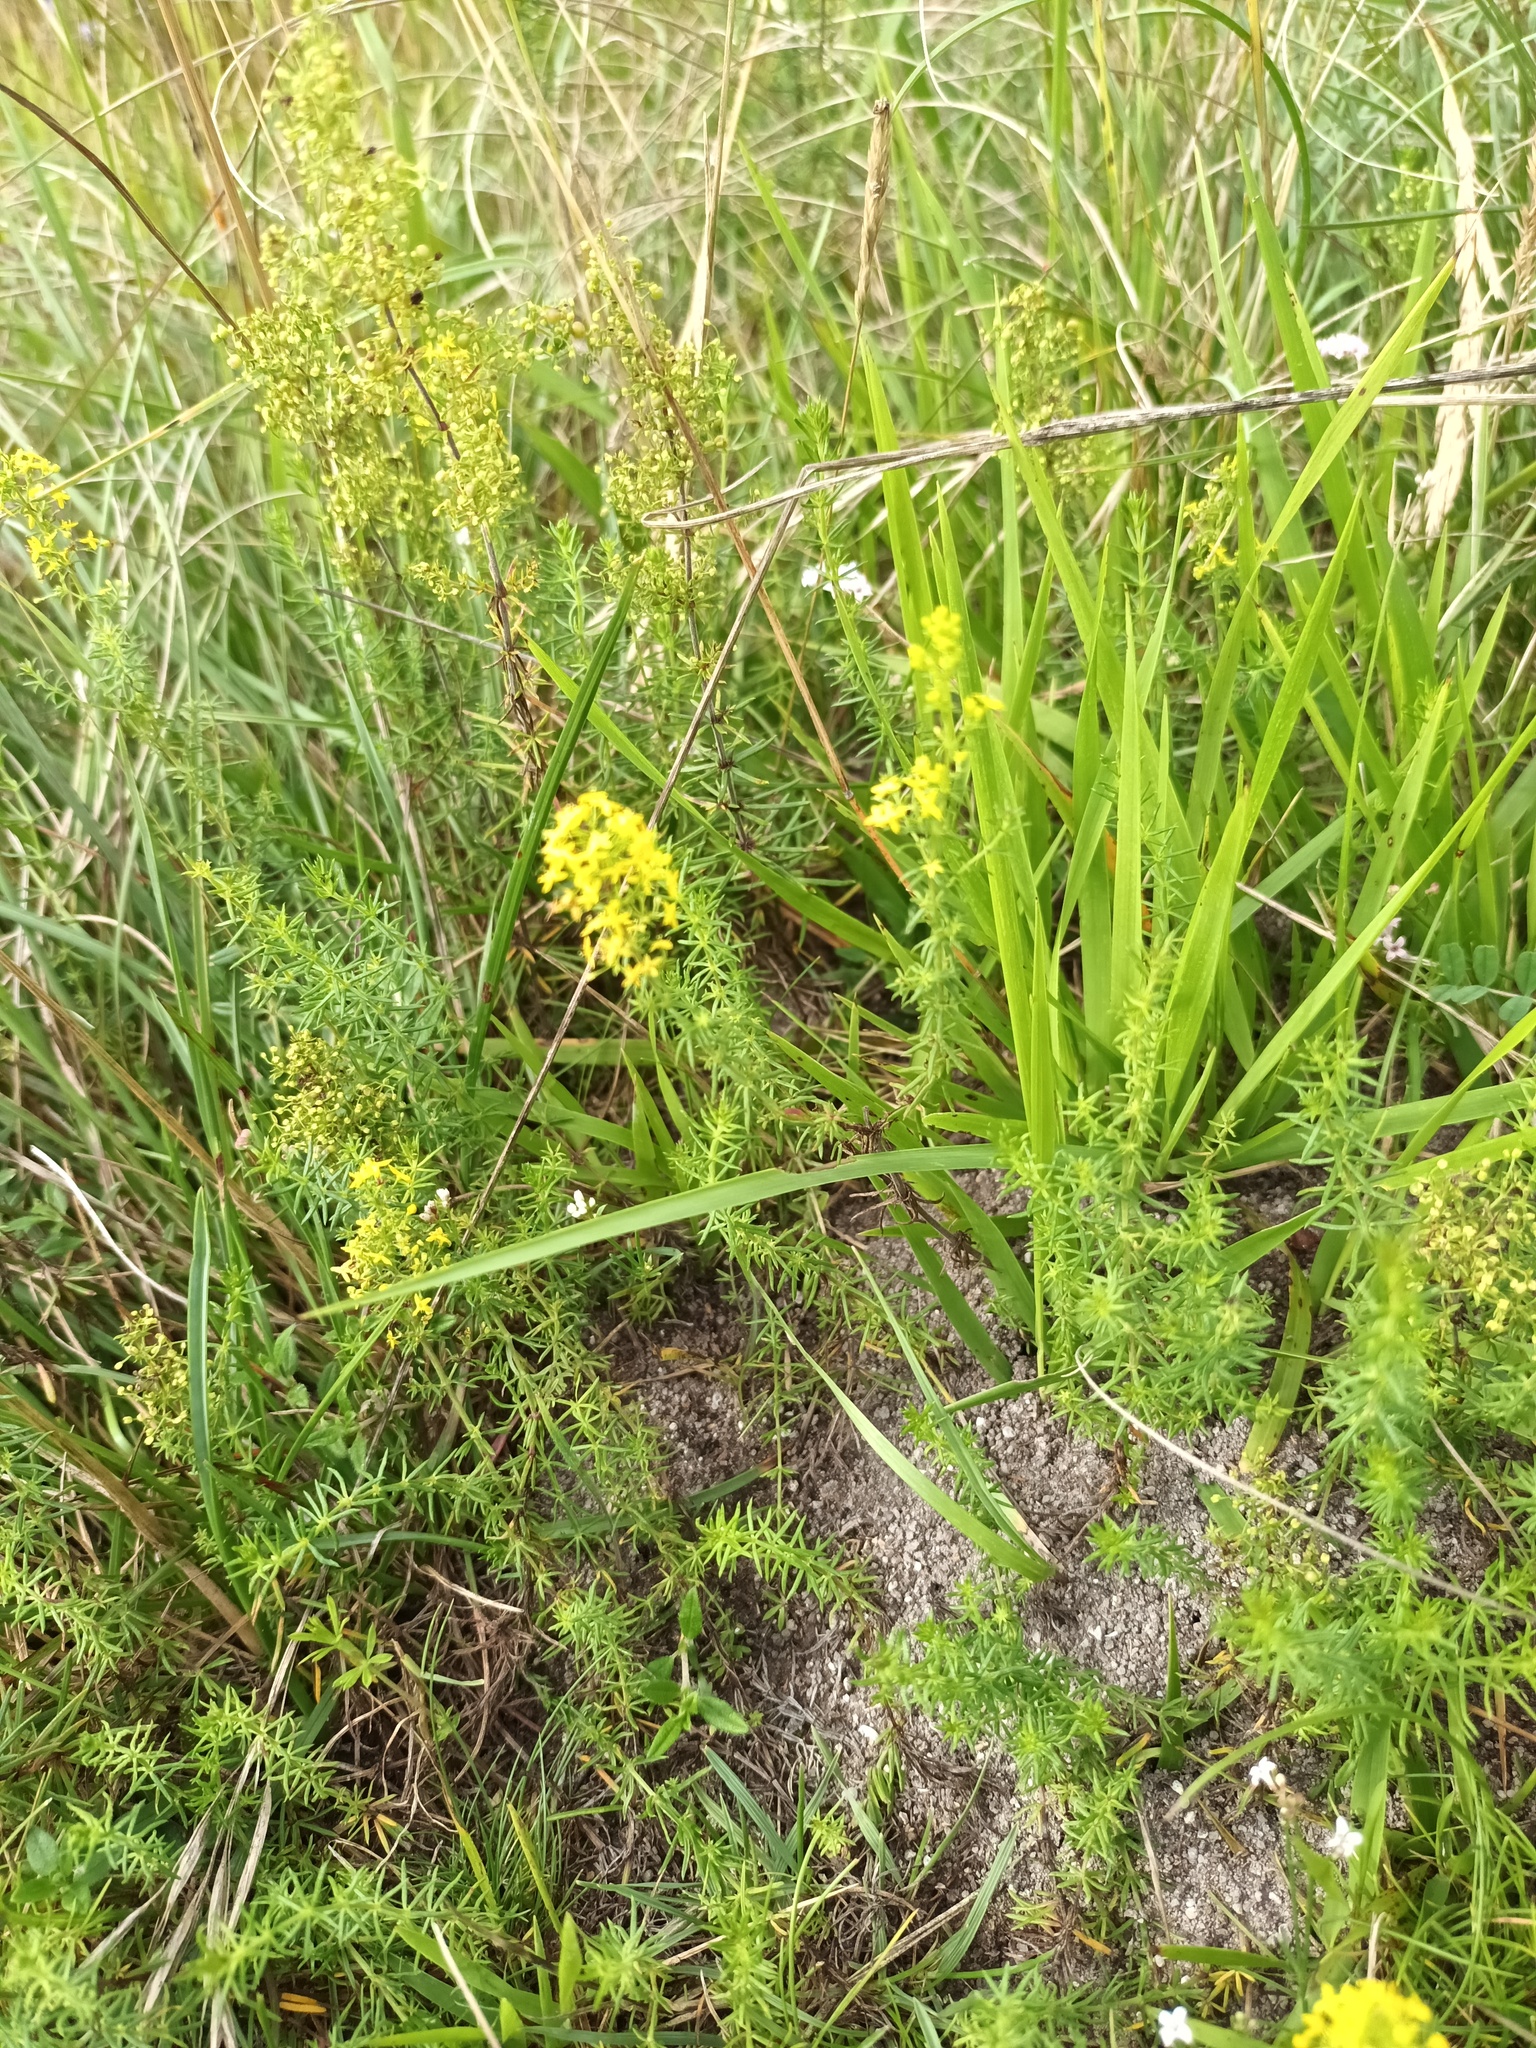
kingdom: Plantae
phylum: Tracheophyta
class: Magnoliopsida
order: Gentianales
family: Rubiaceae
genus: Galium
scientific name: Galium verum
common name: Lady's bedstraw
